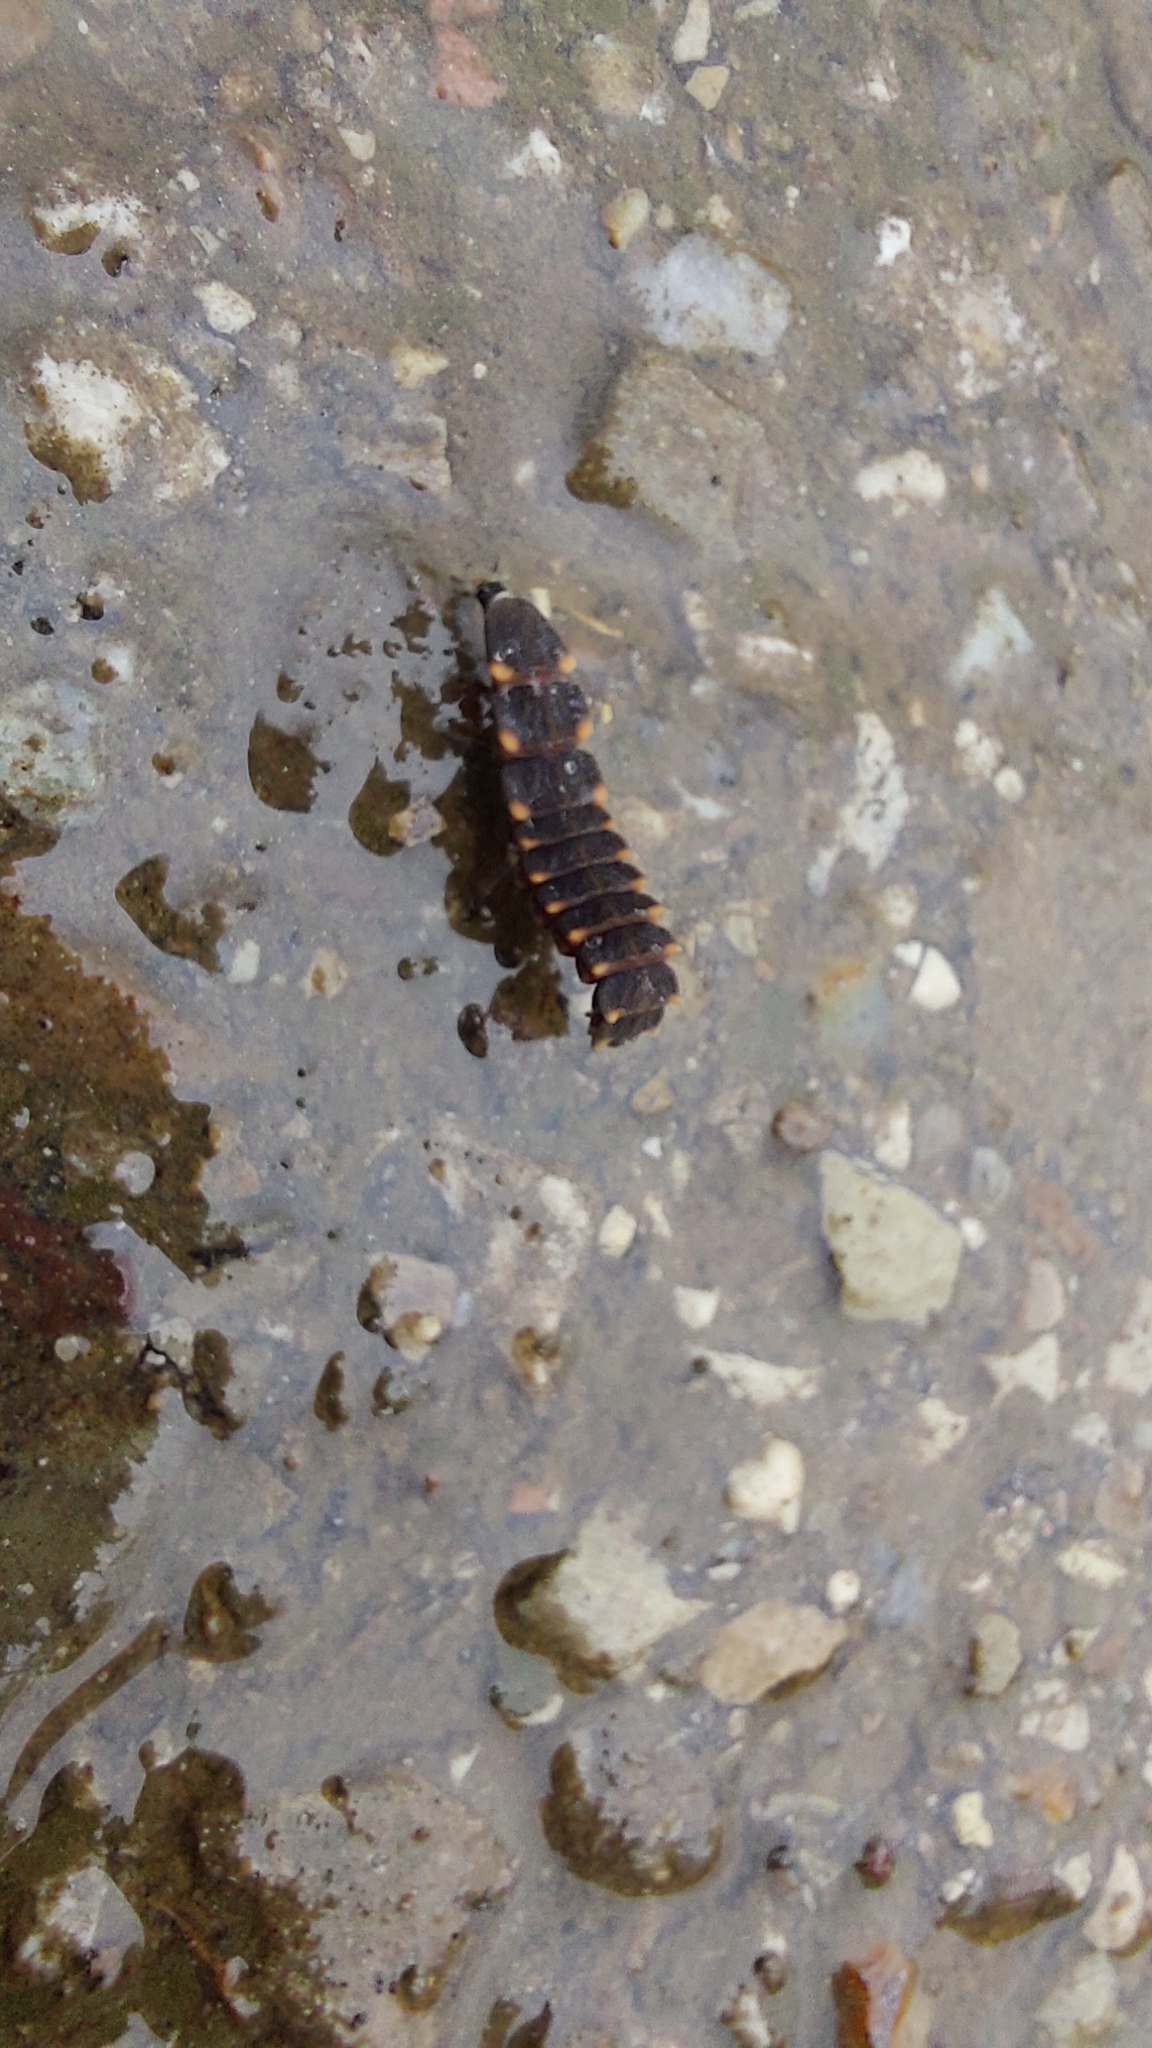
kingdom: Animalia
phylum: Arthropoda
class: Insecta
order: Coleoptera
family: Lampyridae
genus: Lampyris
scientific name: Lampyris noctiluca
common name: Glow-worm
